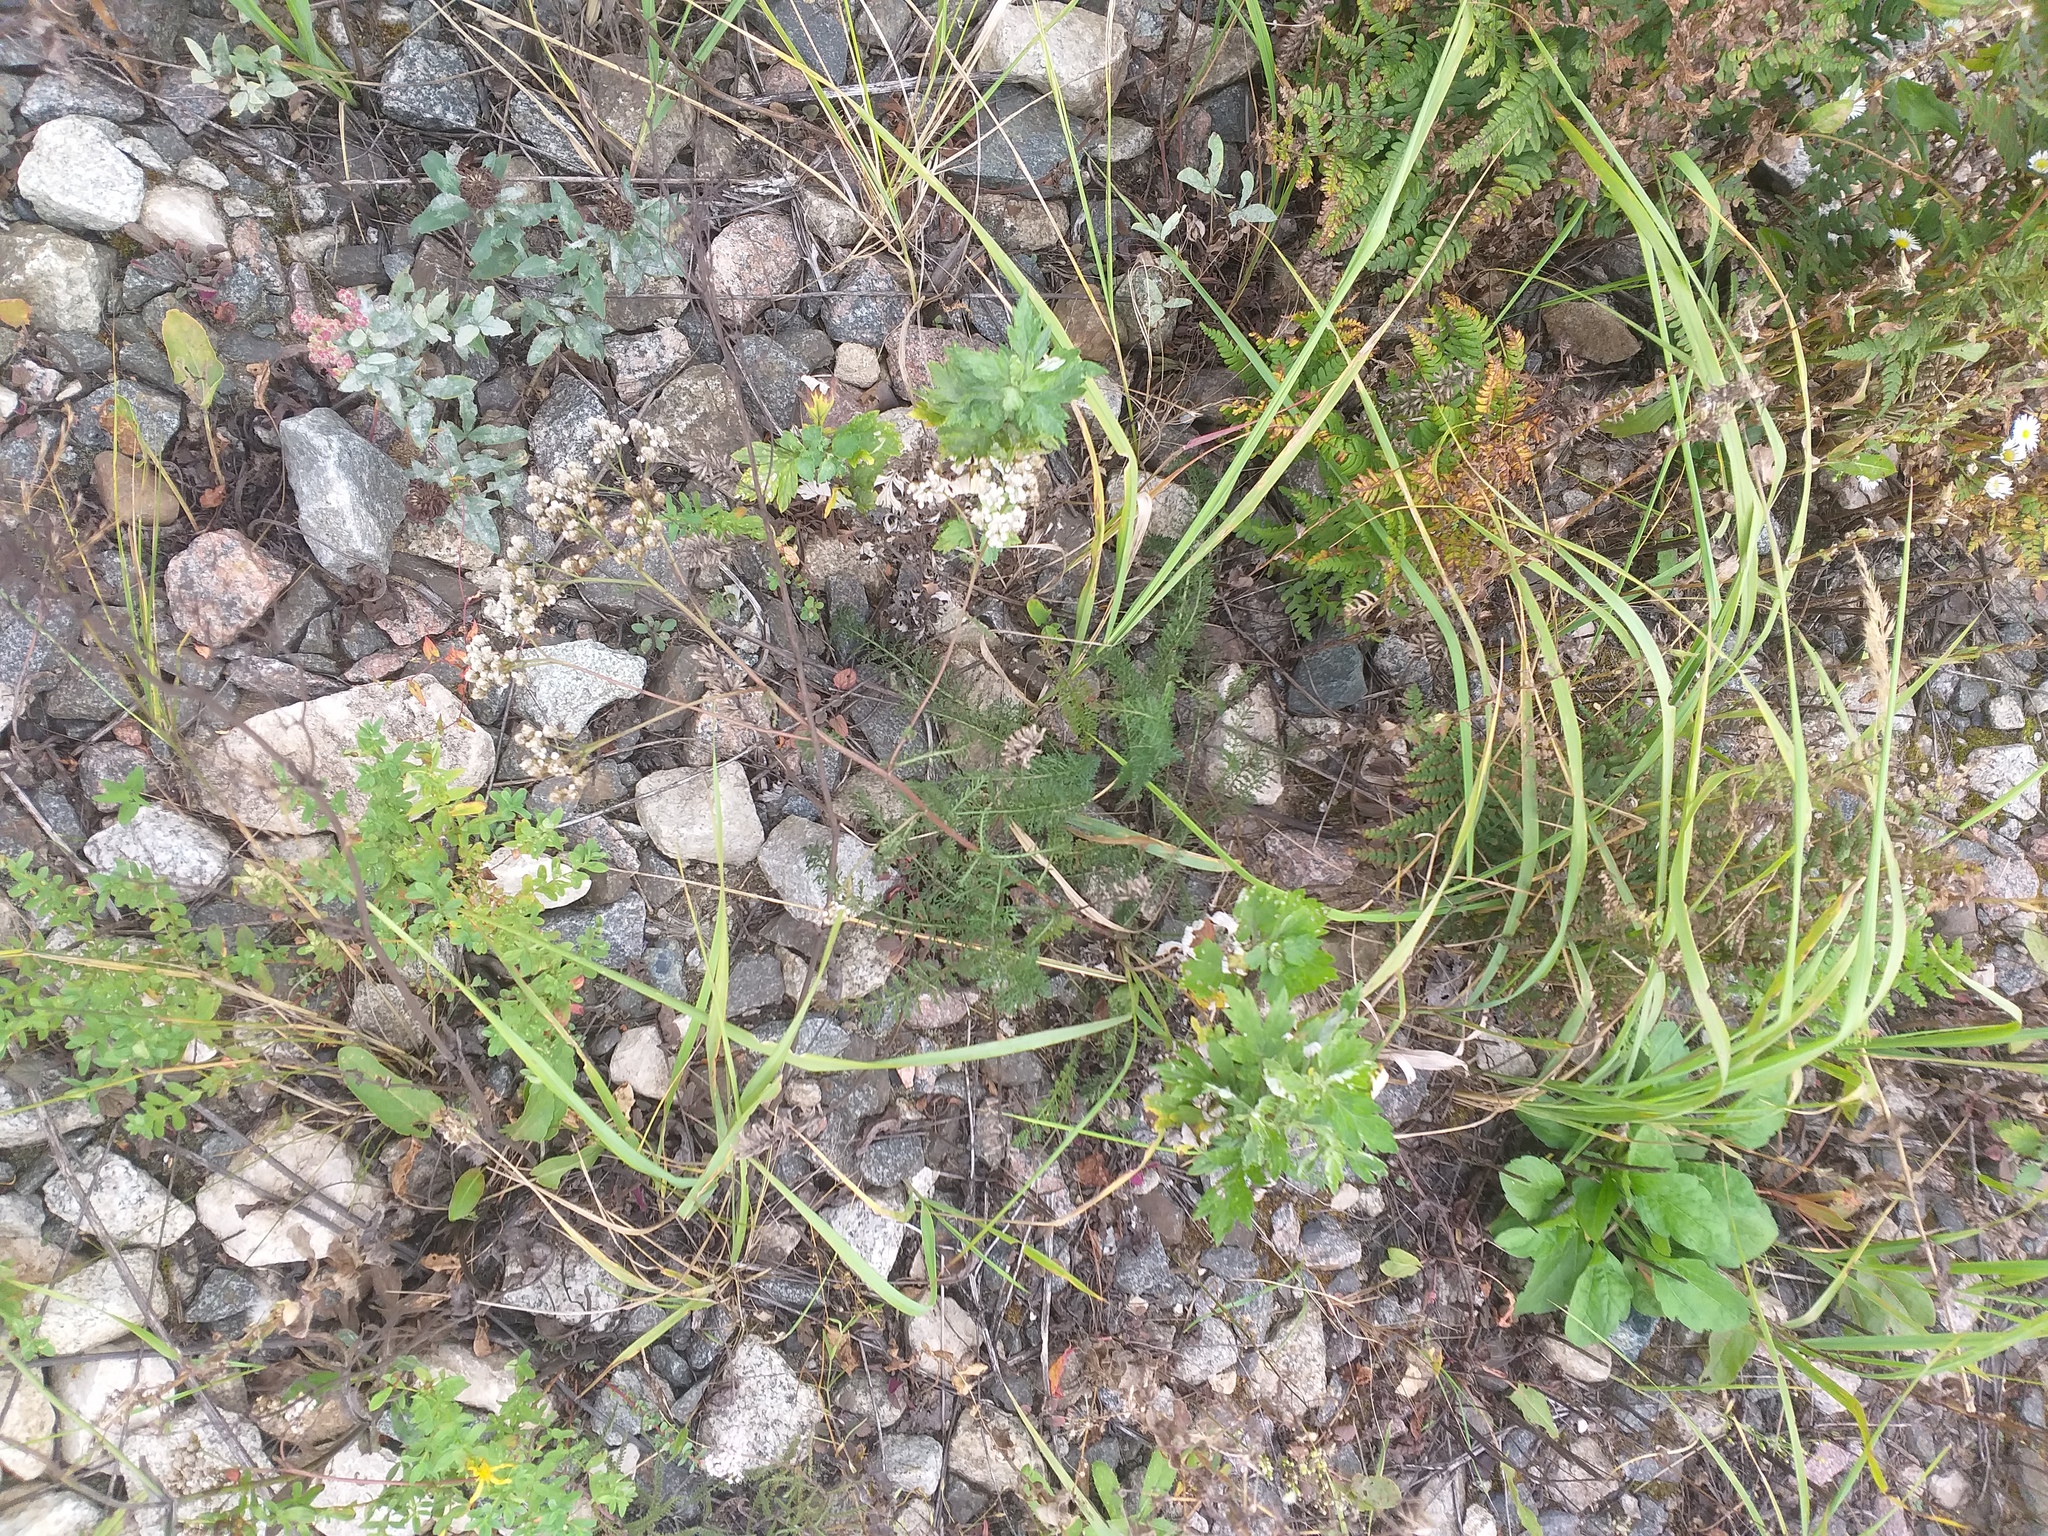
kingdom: Plantae
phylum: Tracheophyta
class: Magnoliopsida
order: Asterales
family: Asteraceae
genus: Achillea
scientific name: Achillea millefolium
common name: Yarrow
